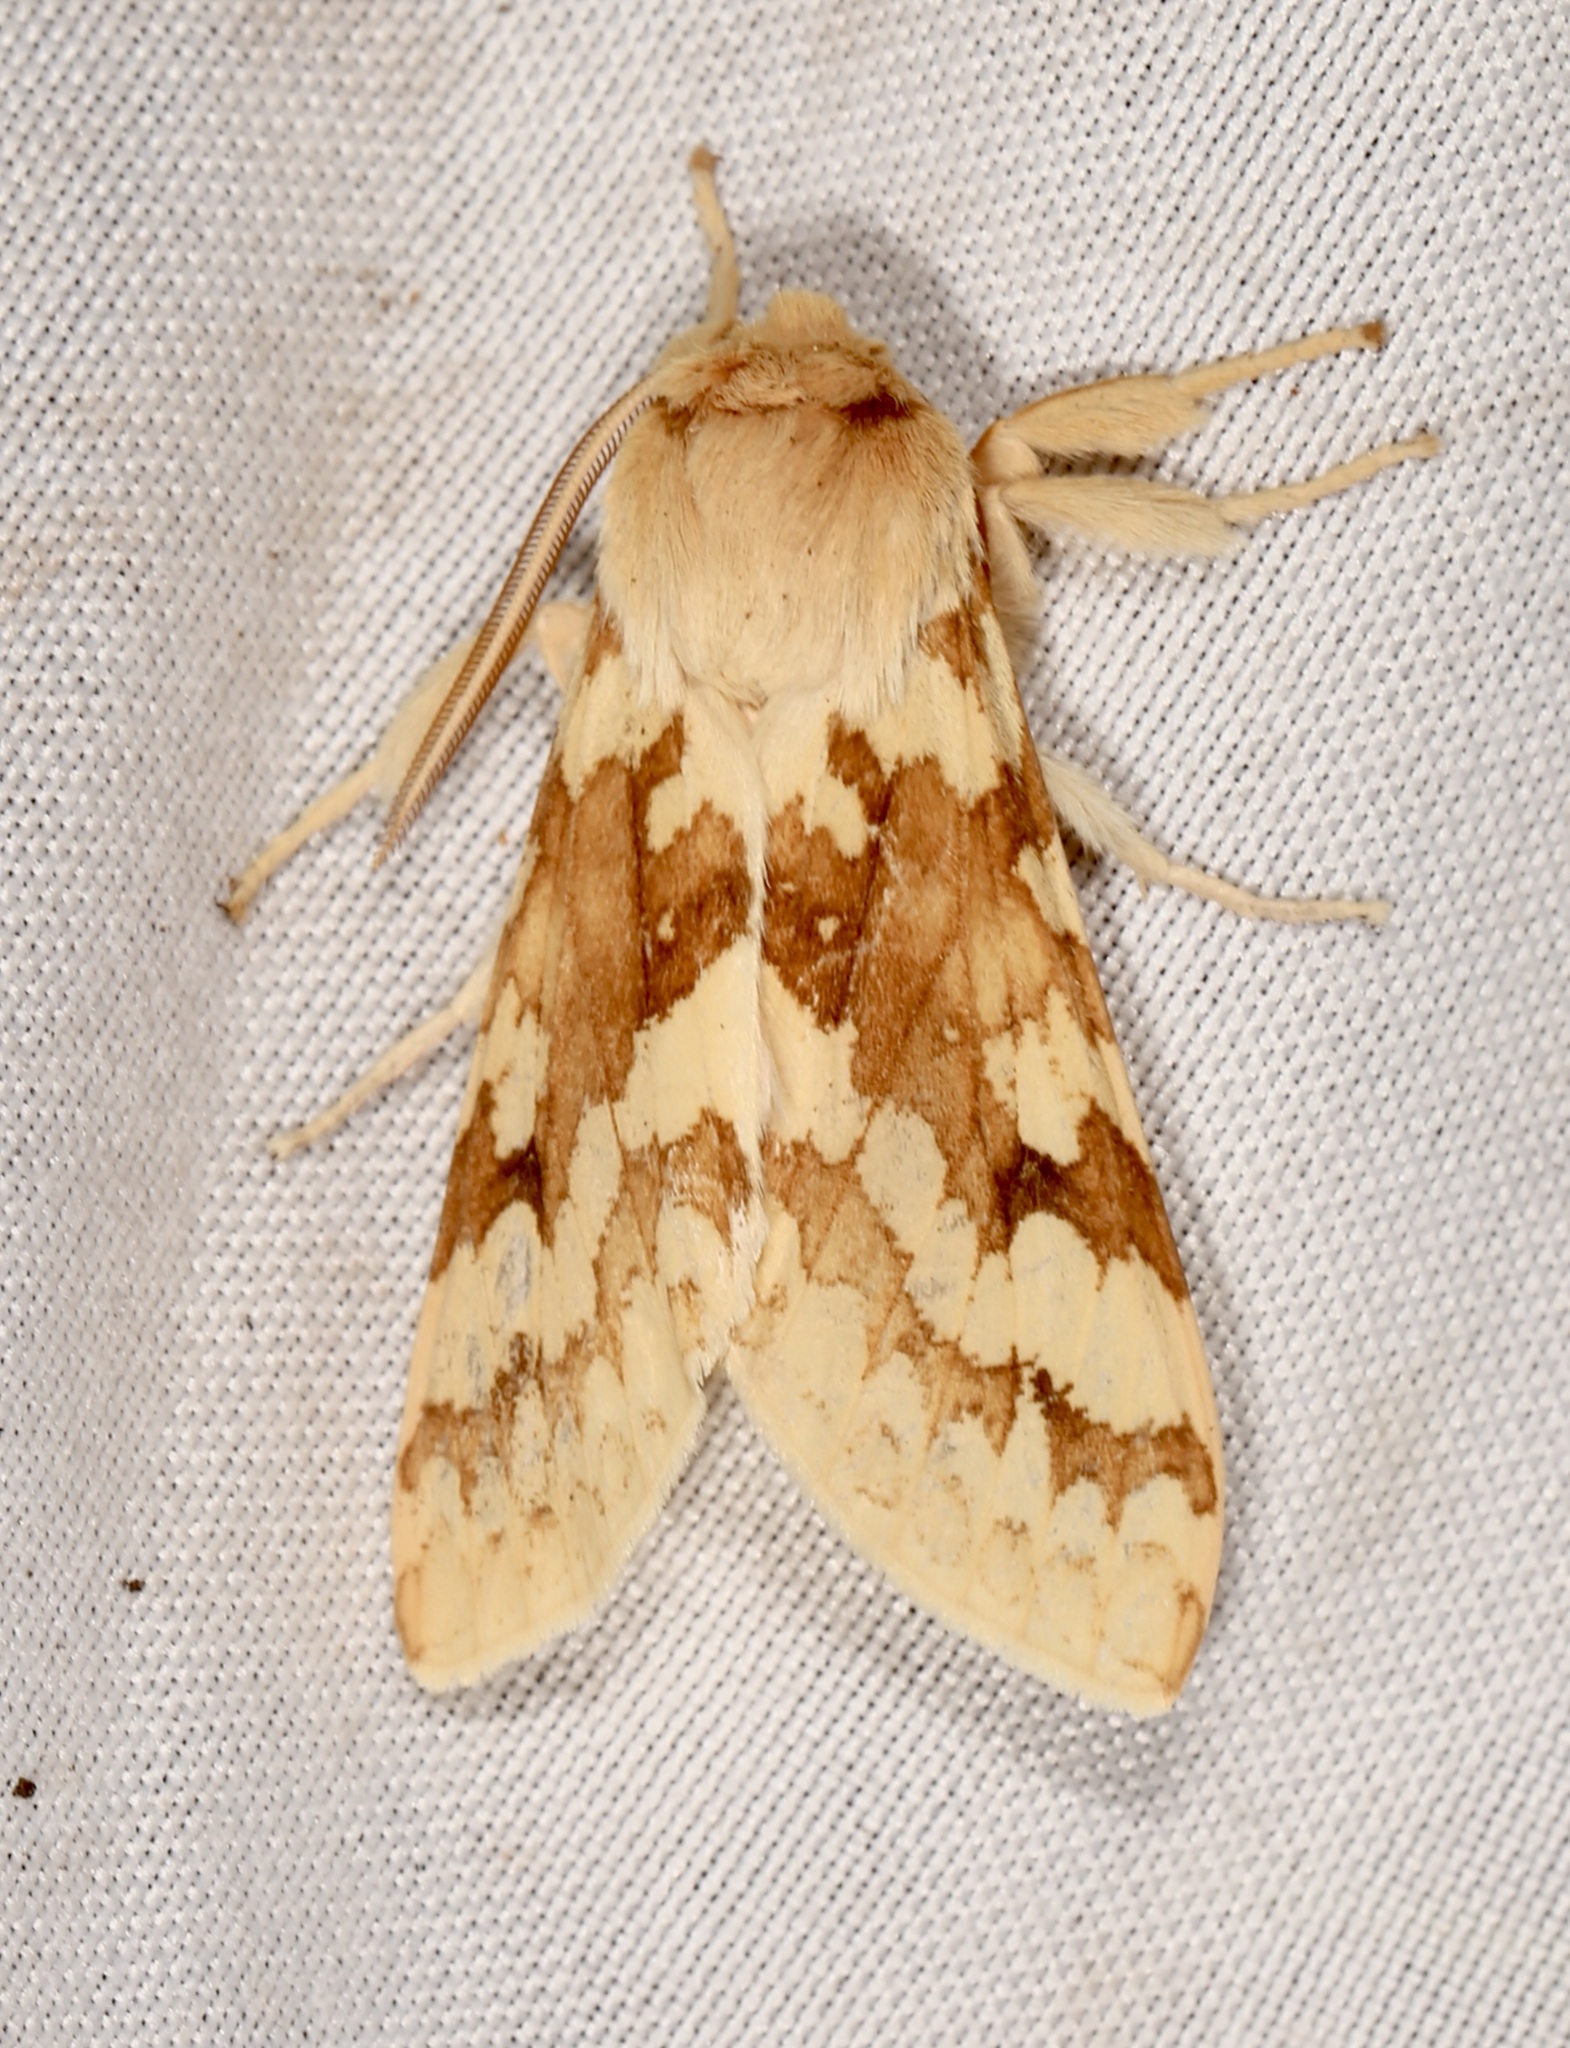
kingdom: Animalia
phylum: Arthropoda
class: Insecta
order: Lepidoptera
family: Erebidae
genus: Lophocampa
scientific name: Lophocampa maculata
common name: Spotted tussock moth
